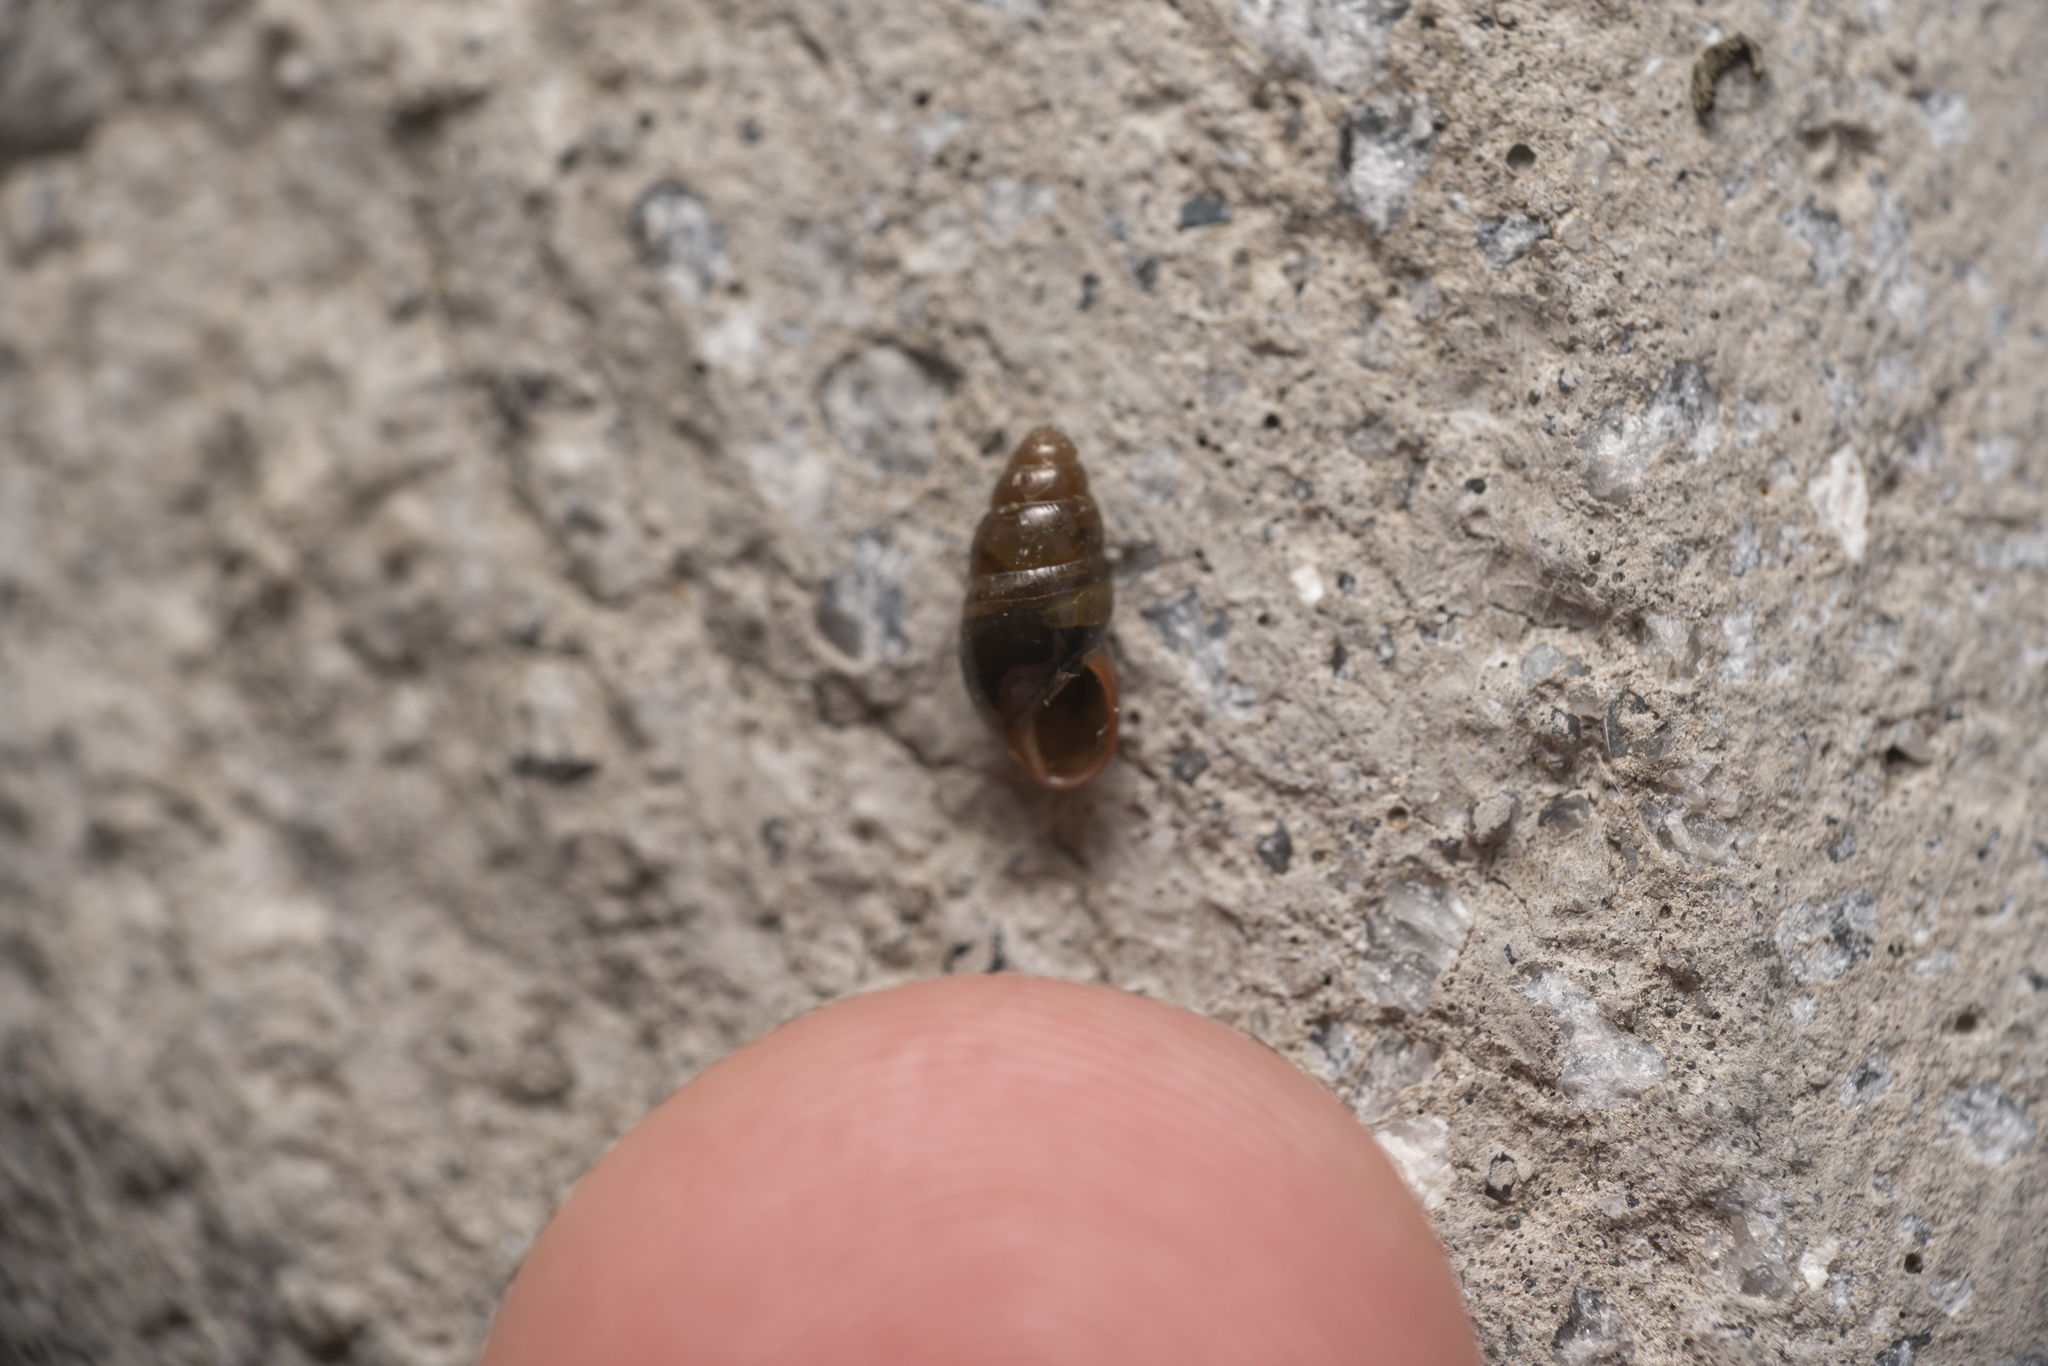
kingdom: Animalia
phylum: Mollusca
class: Gastropoda
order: Stylommatophora
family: Cochlicopidae
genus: Cochlicopa
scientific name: Cochlicopa lubrica
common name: Glossy pillar snail
